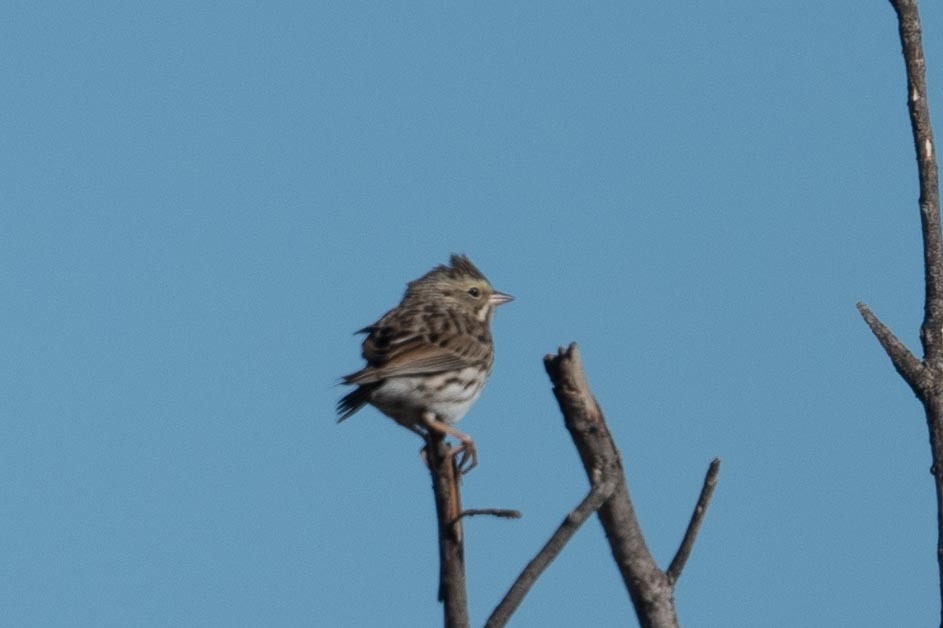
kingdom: Animalia
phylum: Chordata
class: Aves
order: Passeriformes
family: Passerellidae
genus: Passerculus
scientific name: Passerculus sandwichensis
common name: Savannah sparrow
